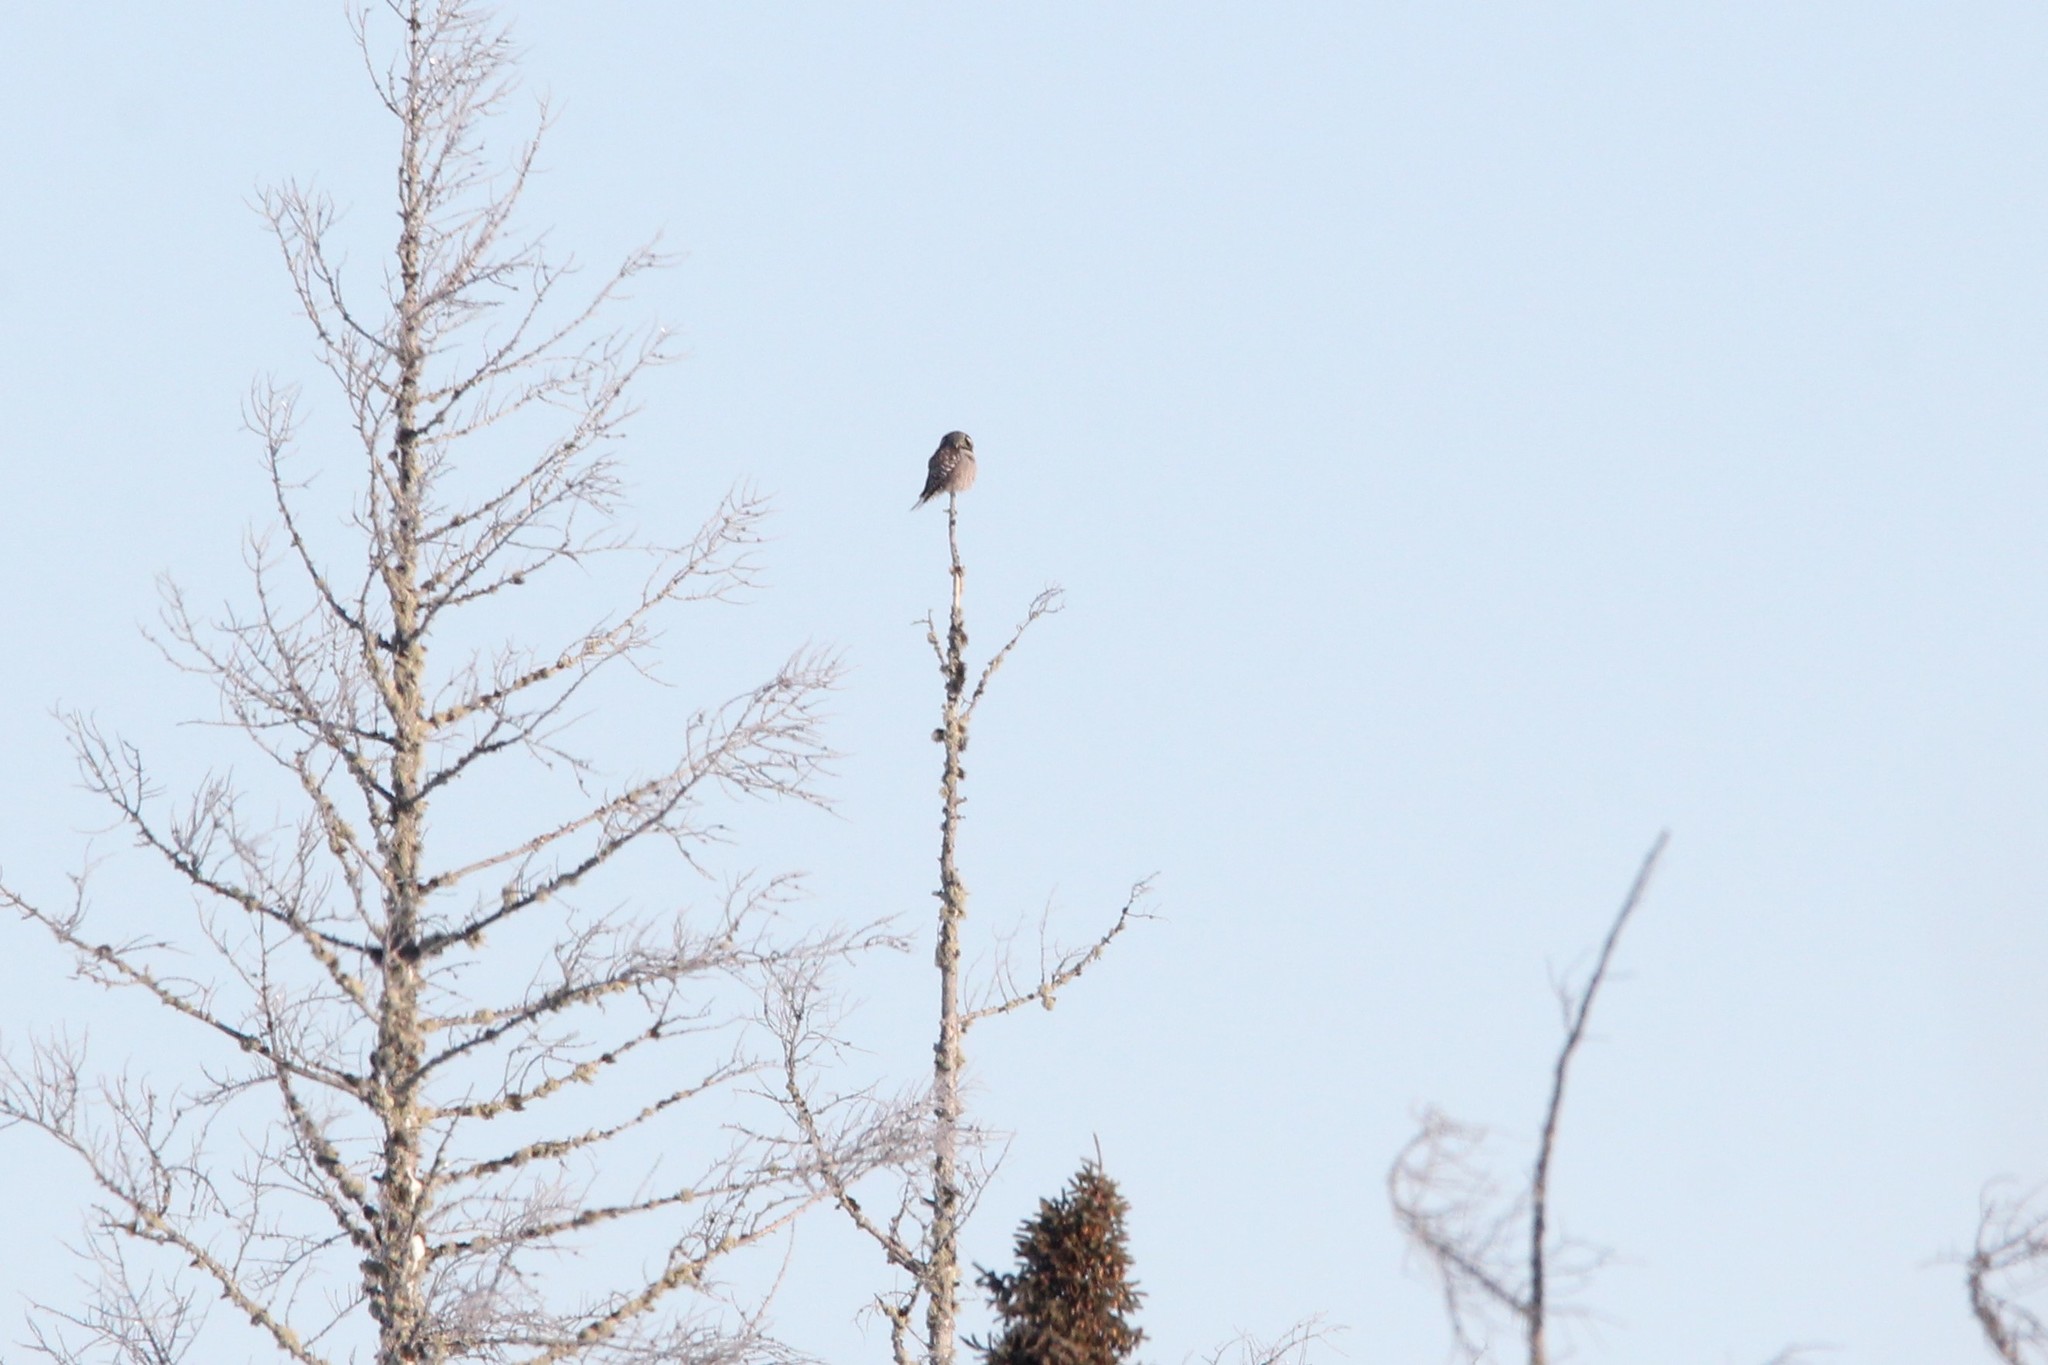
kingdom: Animalia
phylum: Chordata
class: Aves
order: Strigiformes
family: Strigidae
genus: Surnia
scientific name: Surnia ulula
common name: Northern hawk-owl
